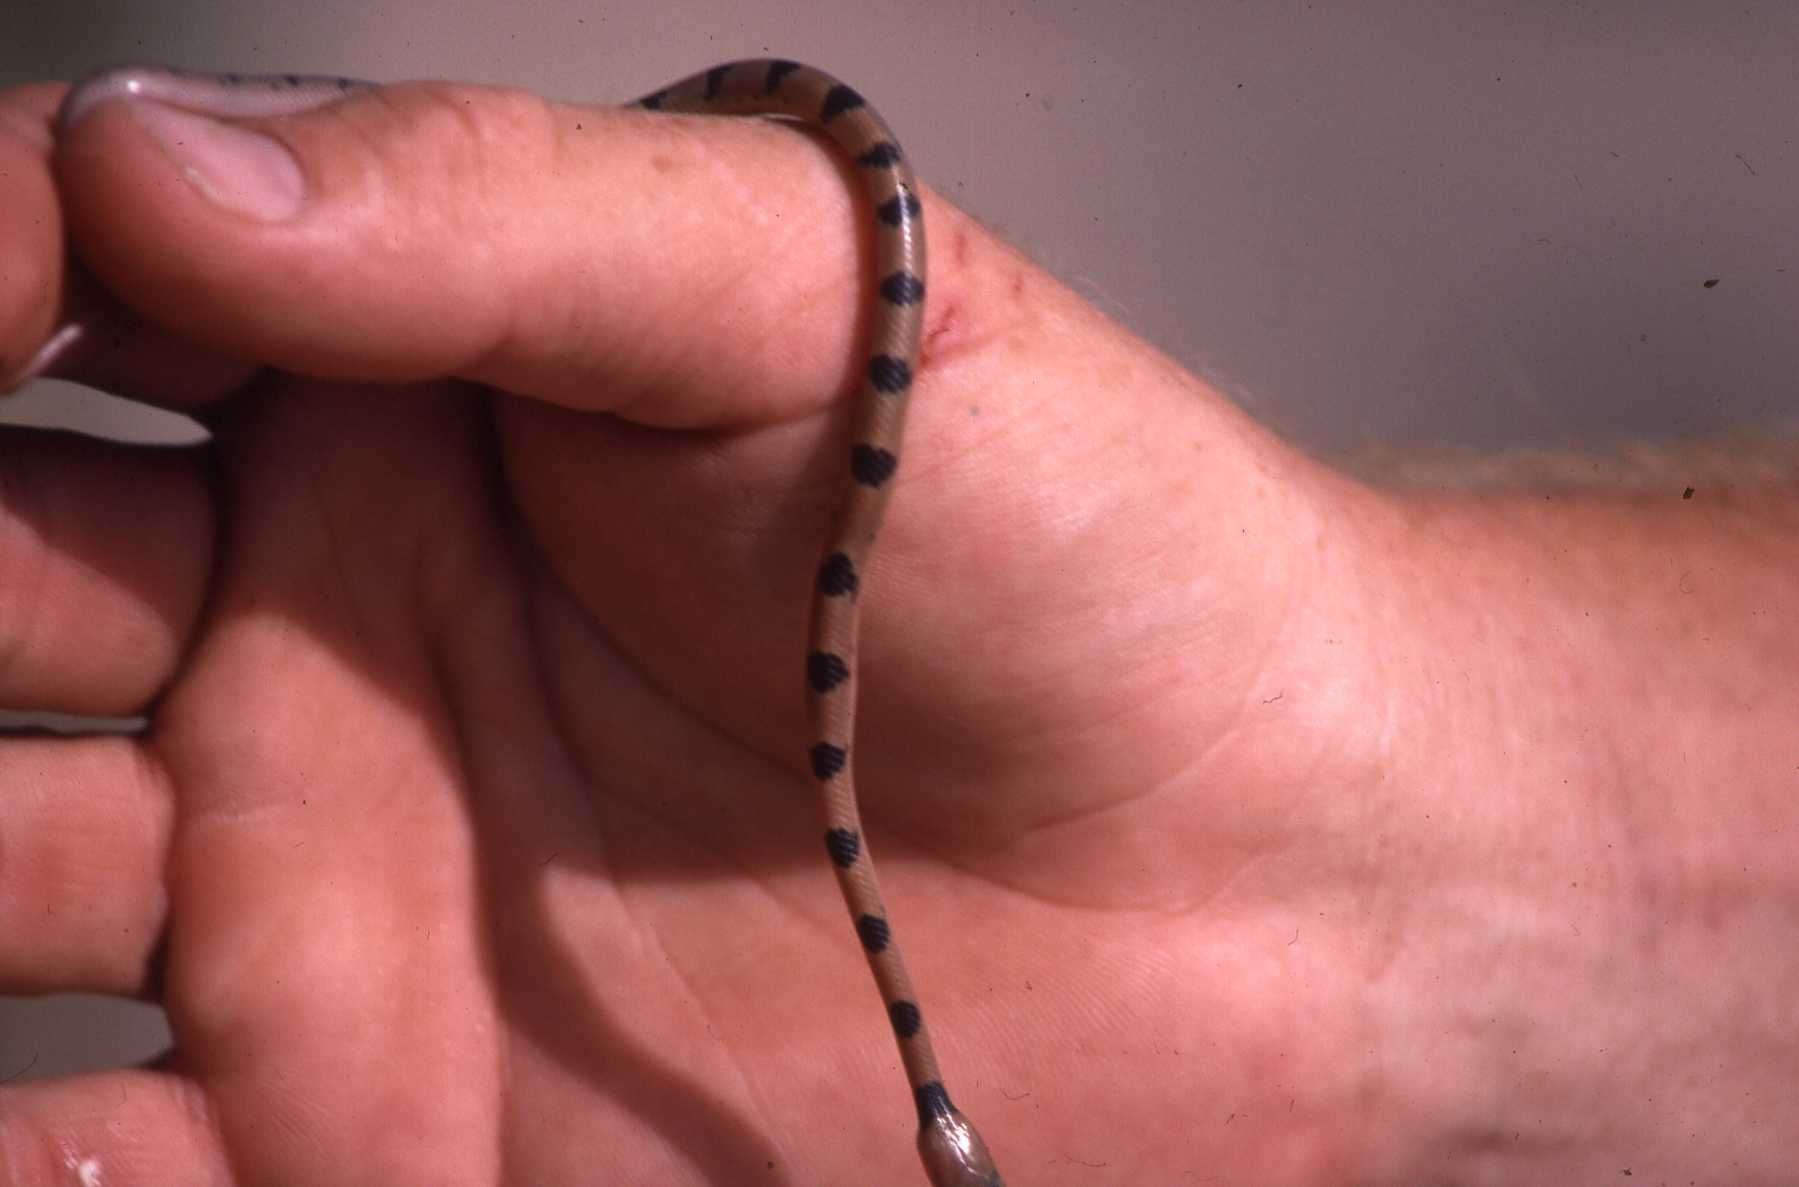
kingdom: Animalia
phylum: Chordata
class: Squamata
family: Colubridae
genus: Telescopus
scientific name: Telescopus semiannulatus
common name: Common tiger snake
